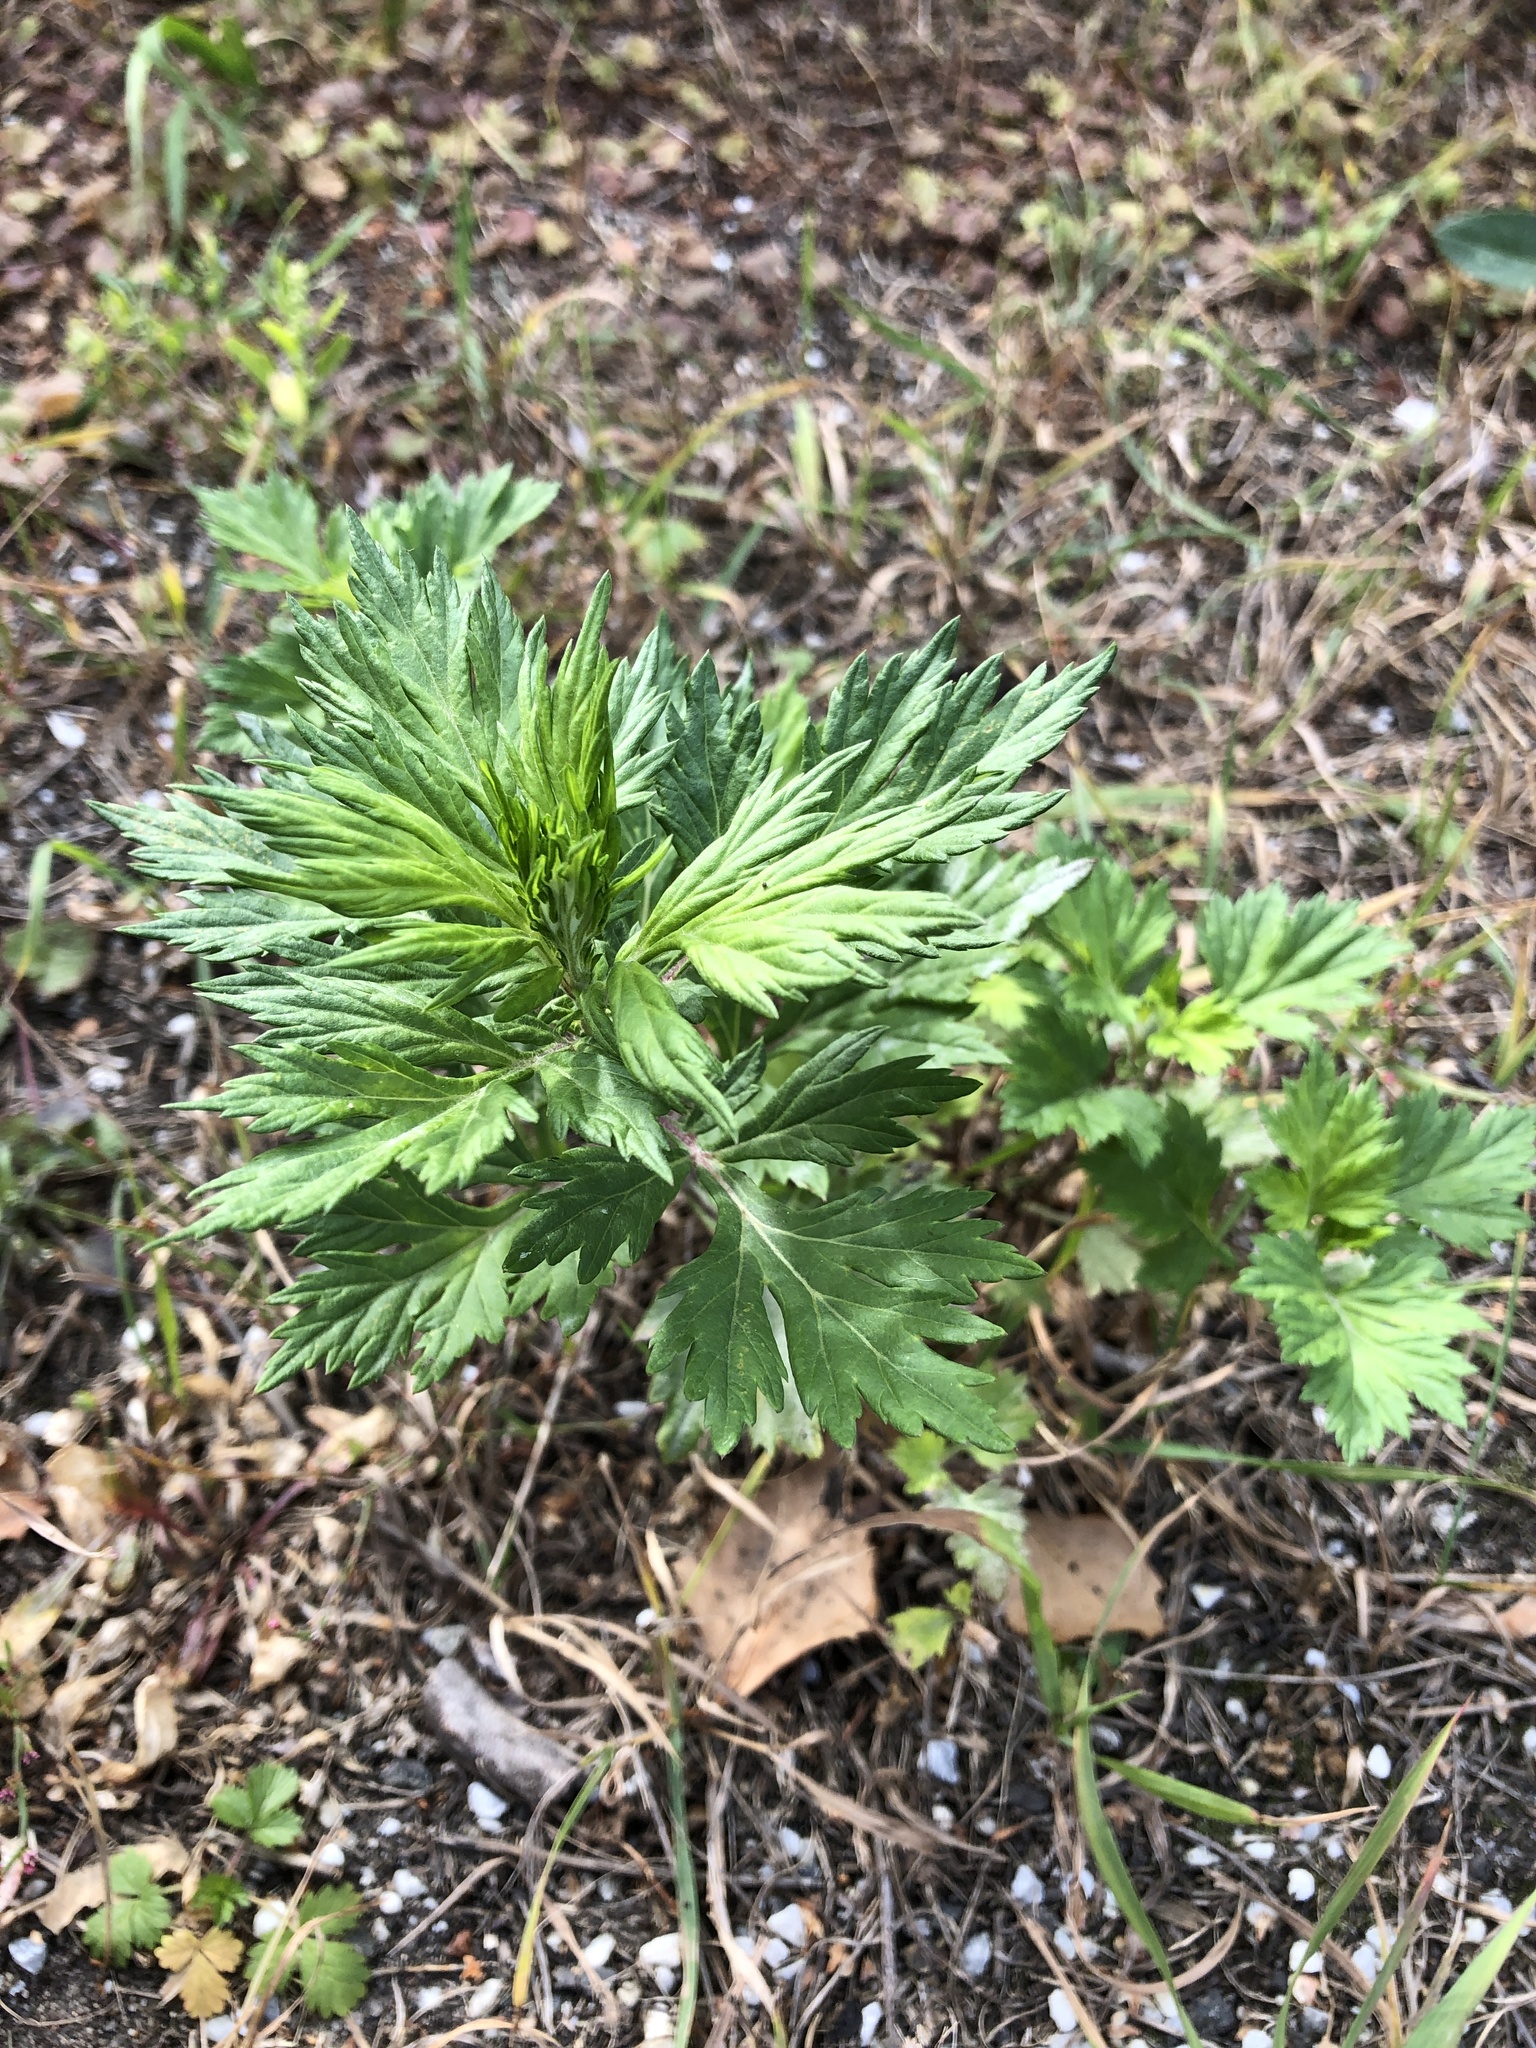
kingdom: Plantae
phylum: Tracheophyta
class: Magnoliopsida
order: Asterales
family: Asteraceae
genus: Artemisia
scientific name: Artemisia vulgaris
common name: Mugwort
